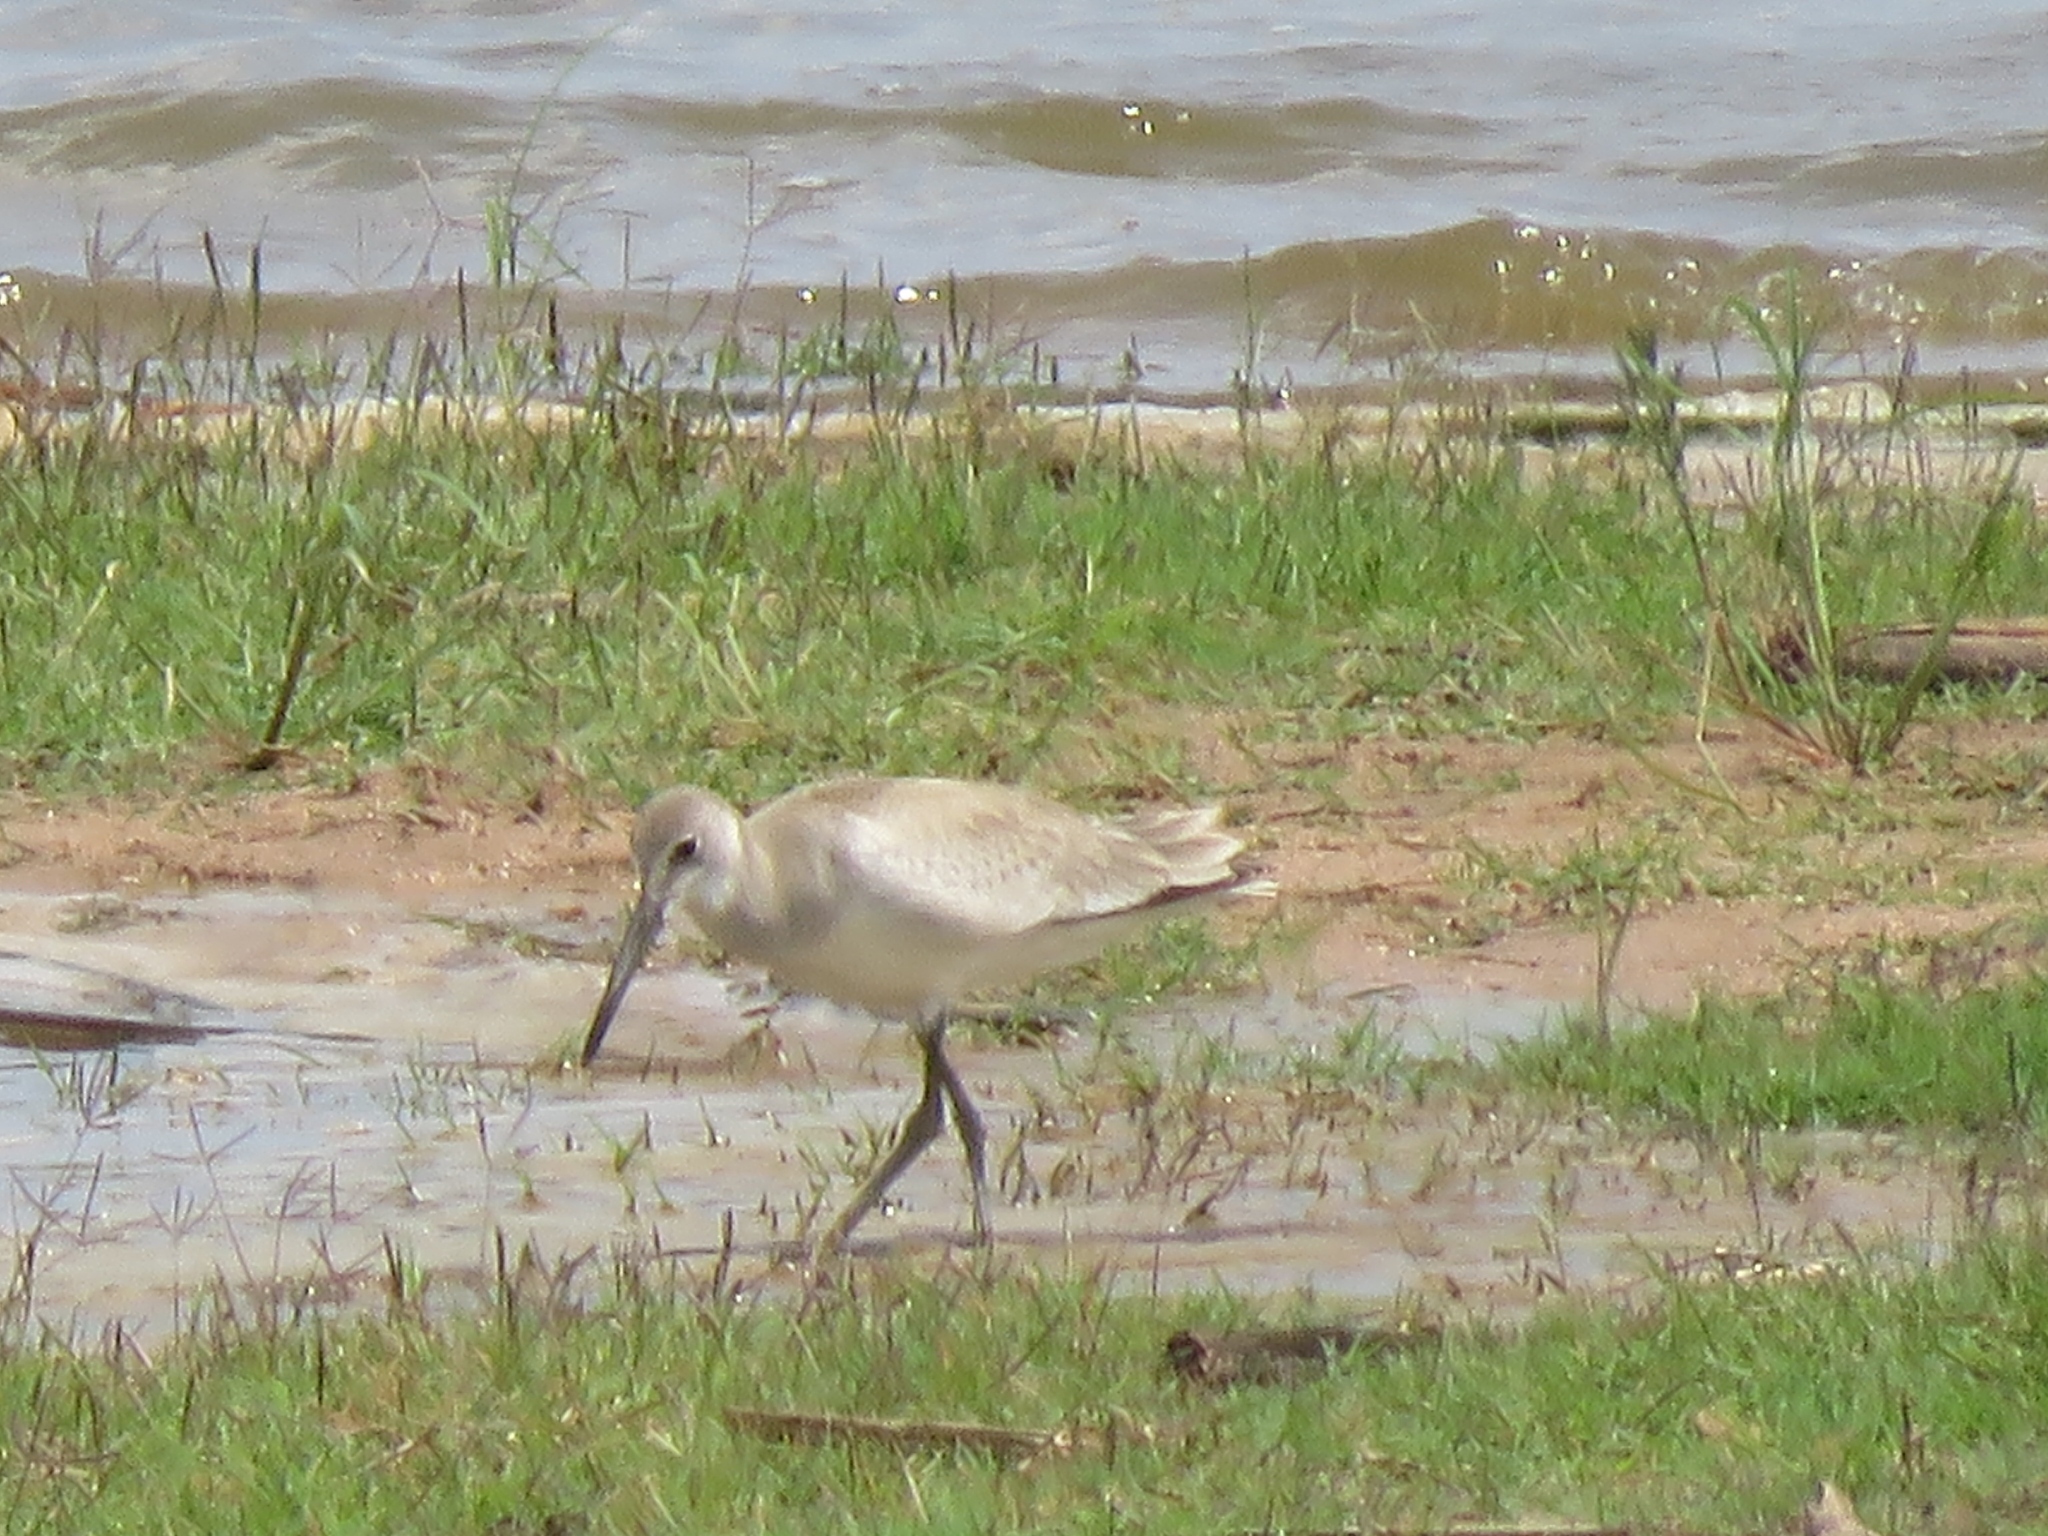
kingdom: Animalia
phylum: Chordata
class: Aves
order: Charadriiformes
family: Scolopacidae
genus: Tringa
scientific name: Tringa semipalmata
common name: Willet
